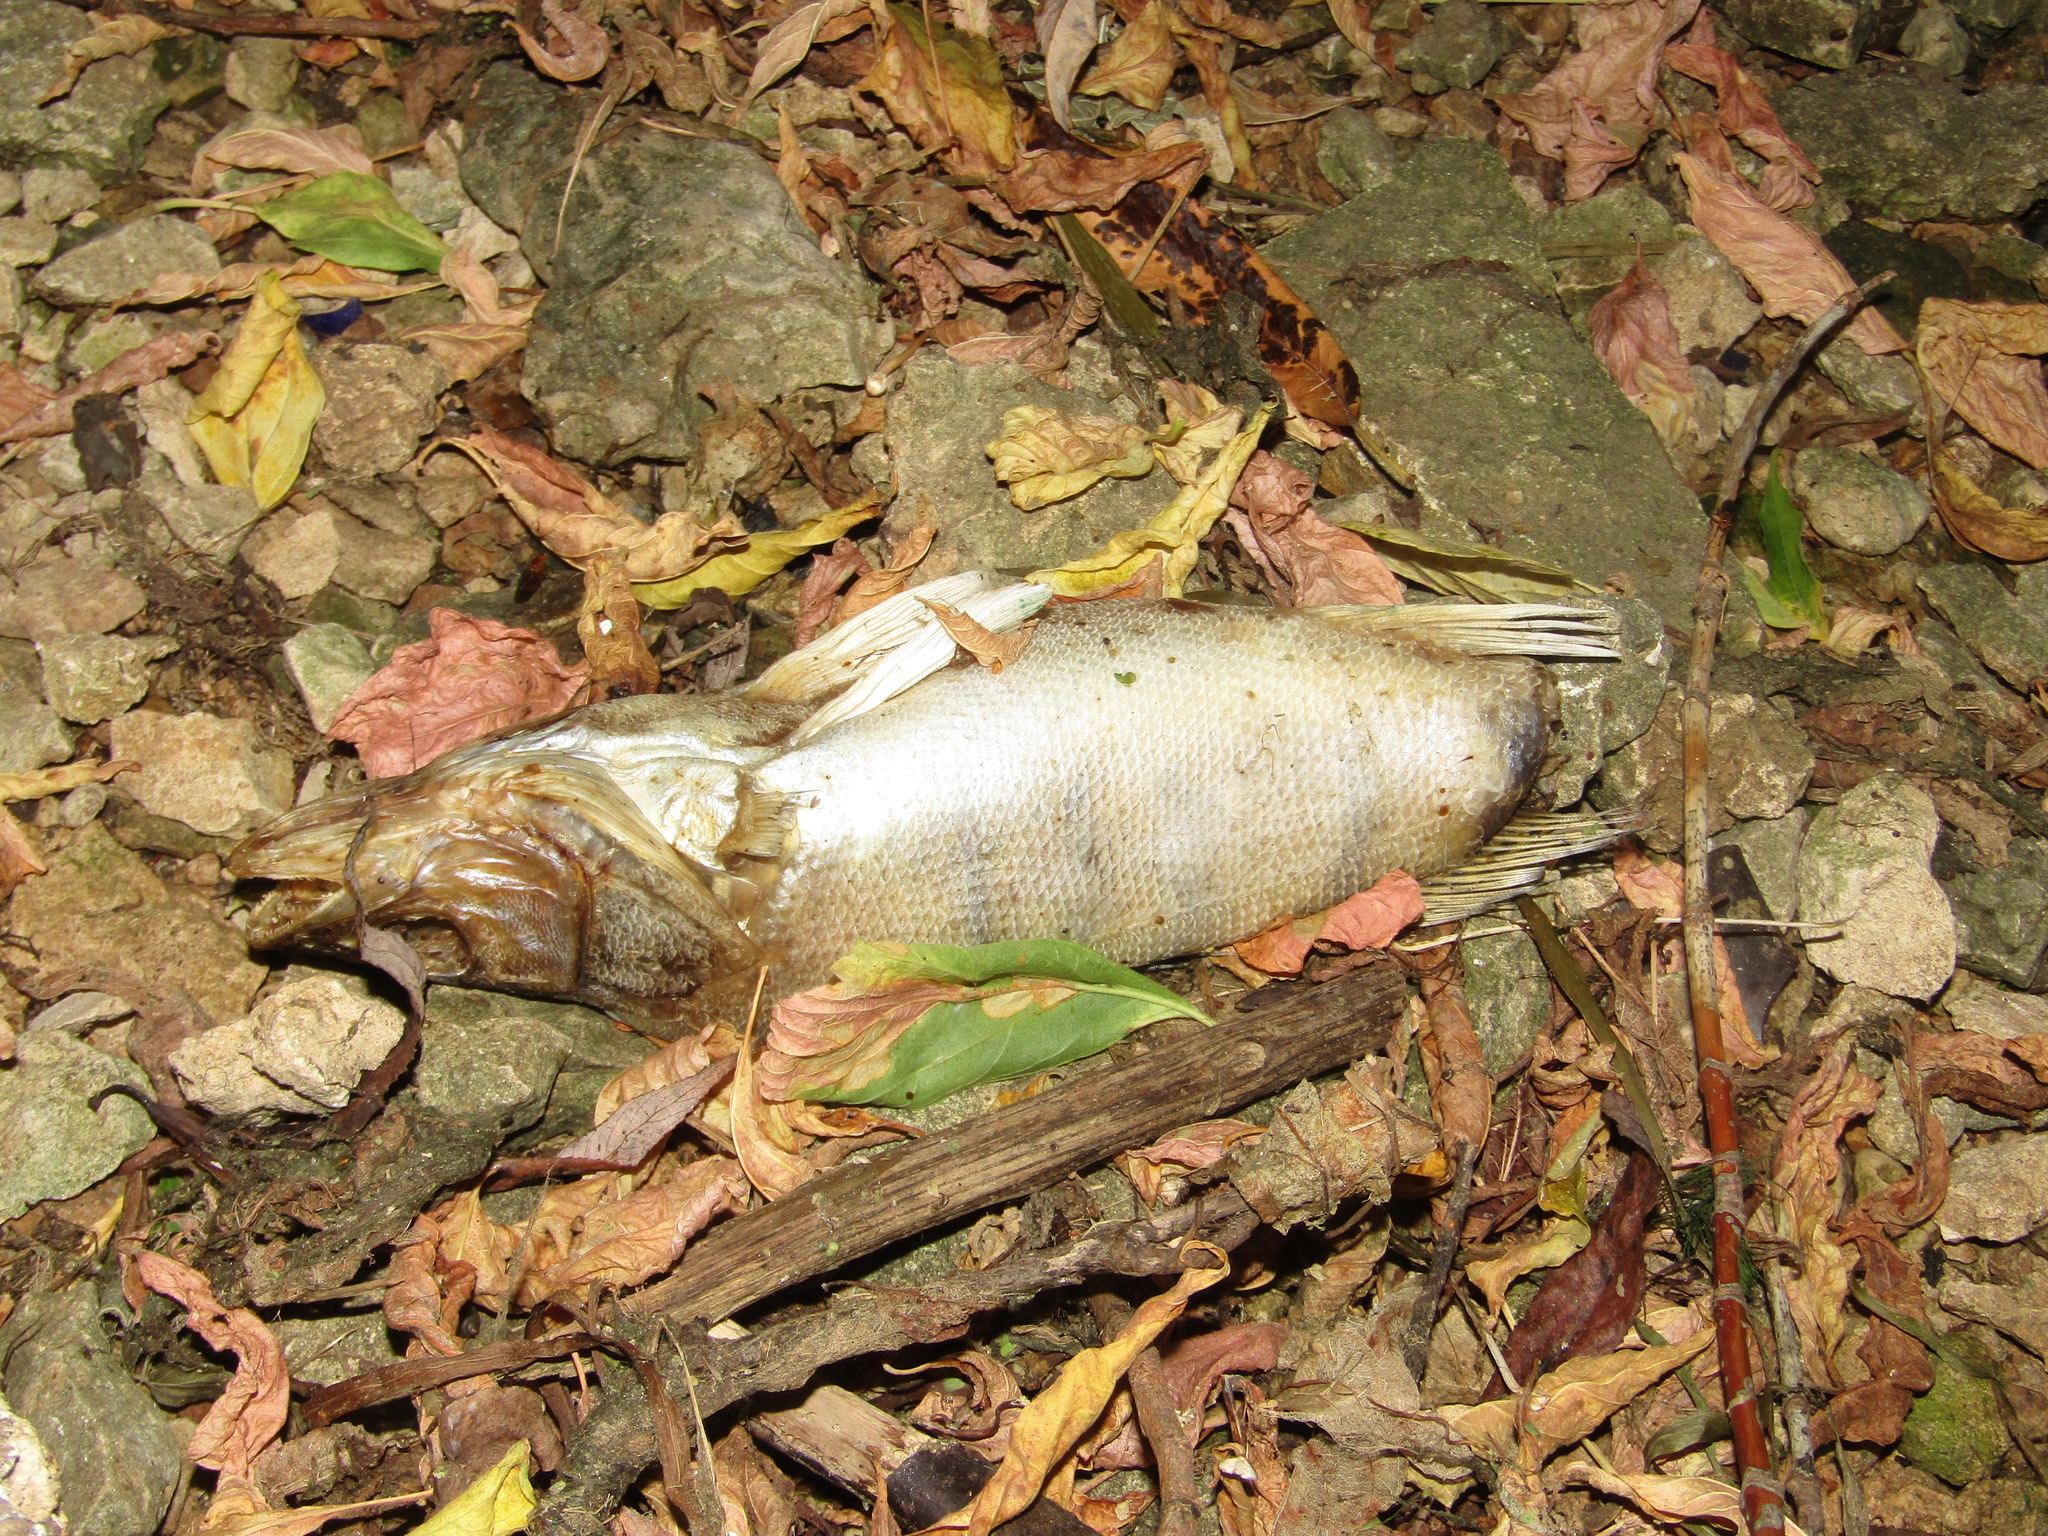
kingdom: Animalia
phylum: Chordata
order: Perciformes
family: Percidae
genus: Sander
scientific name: Sander volgensis
